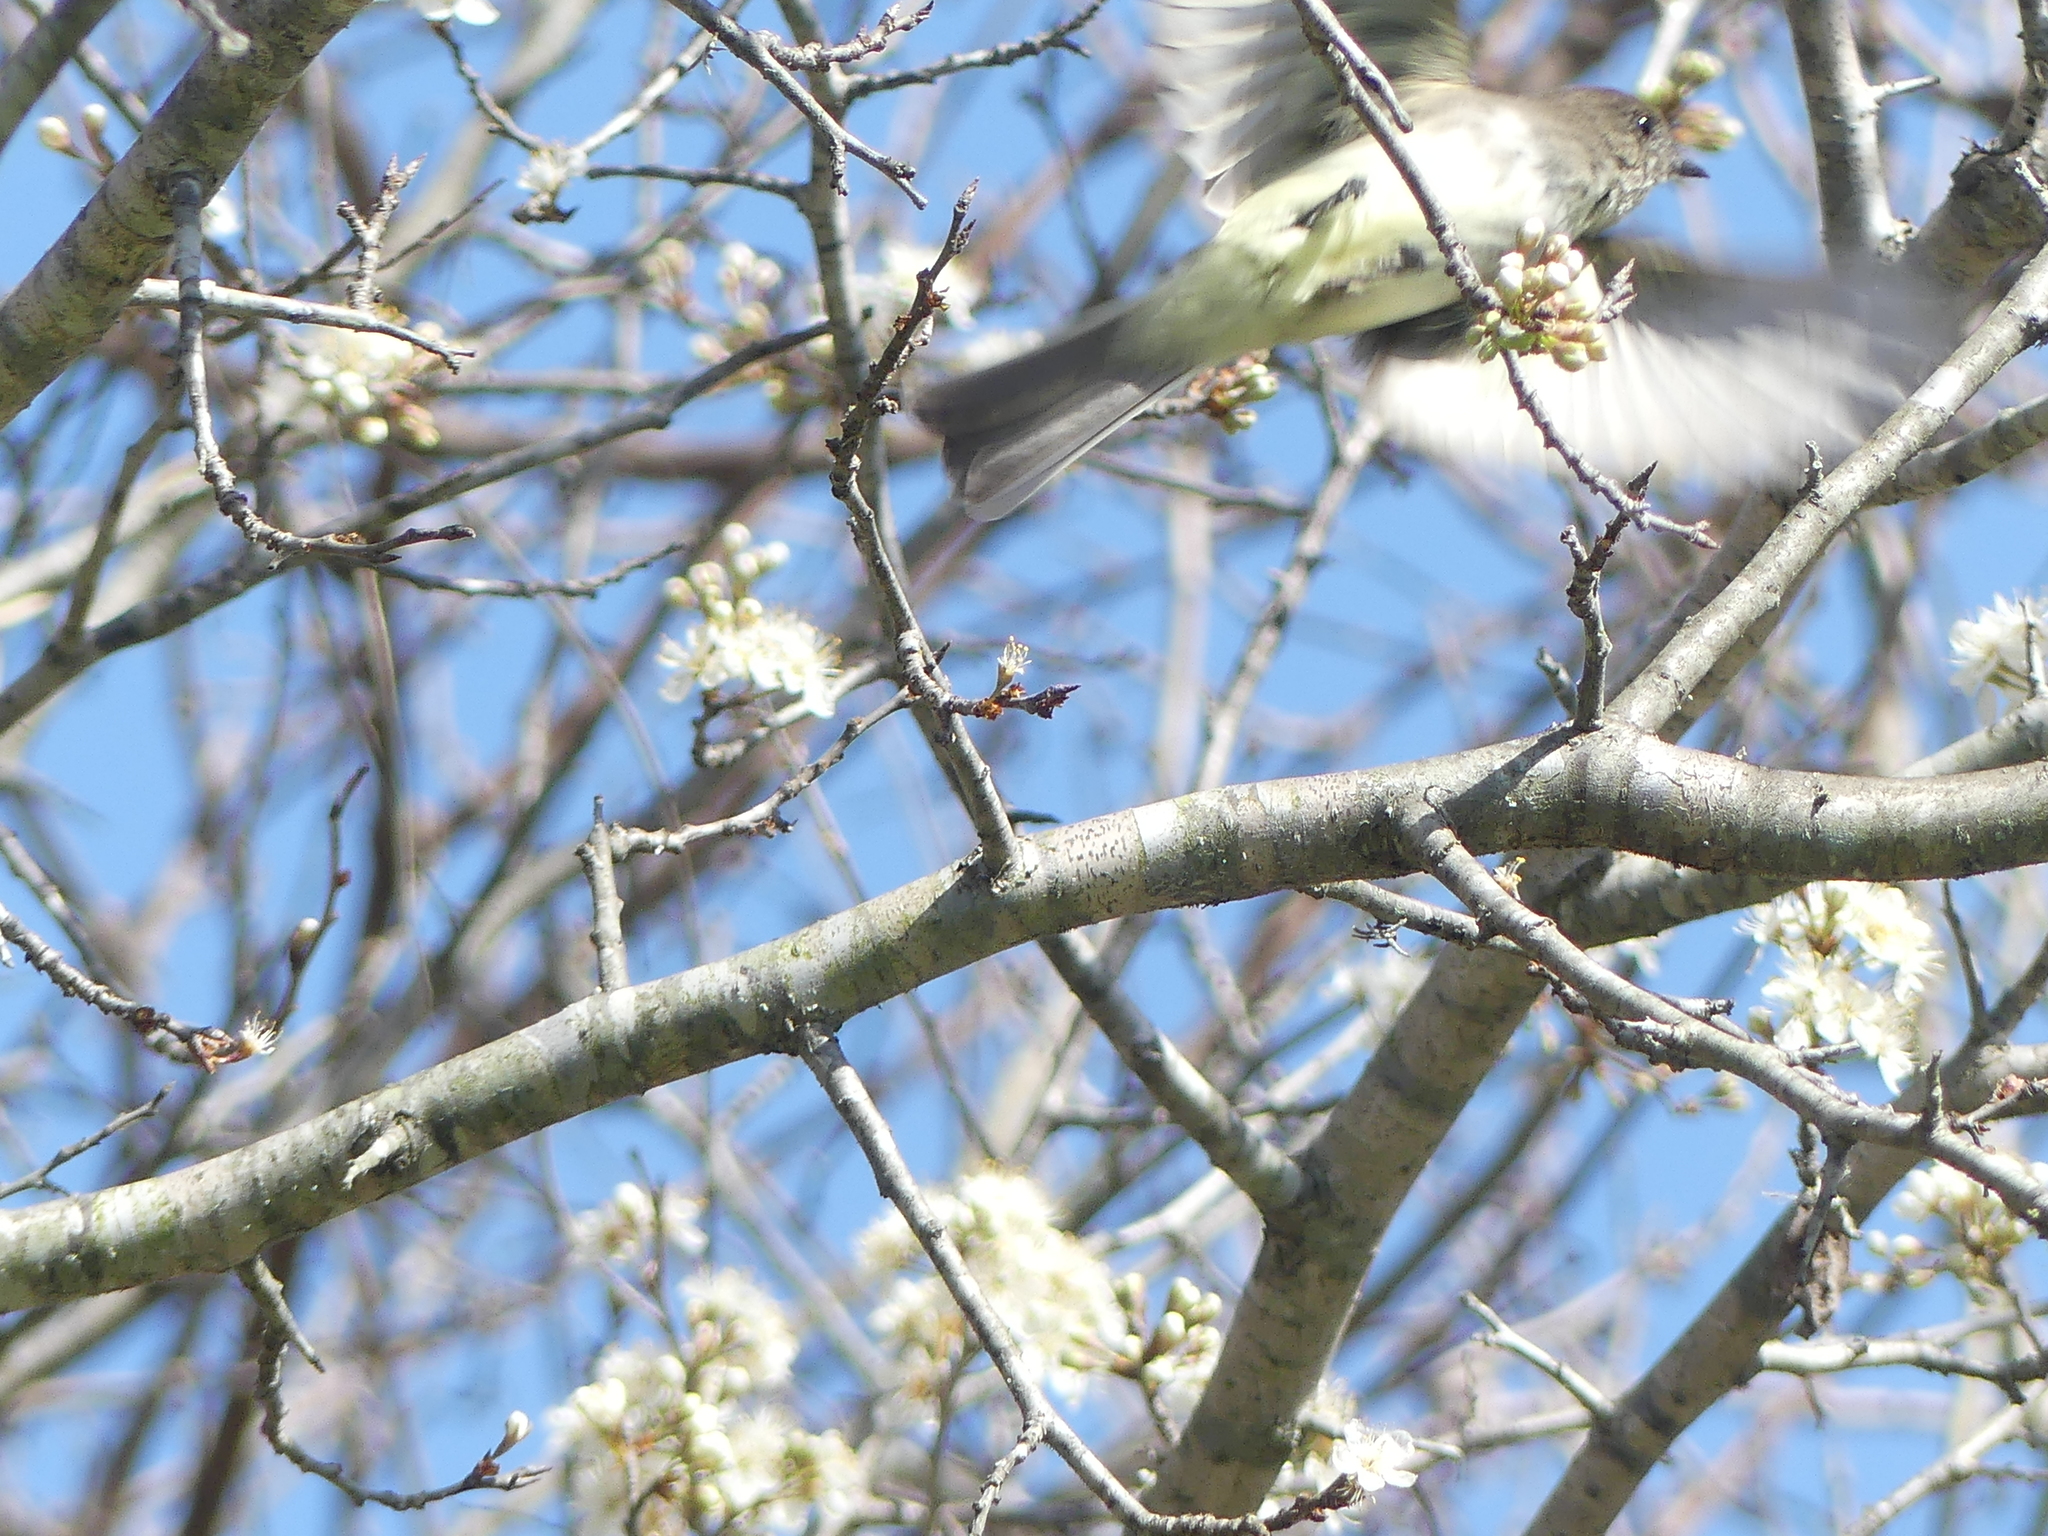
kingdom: Animalia
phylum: Chordata
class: Aves
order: Passeriformes
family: Tyrannidae
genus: Sayornis
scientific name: Sayornis phoebe
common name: Eastern phoebe
